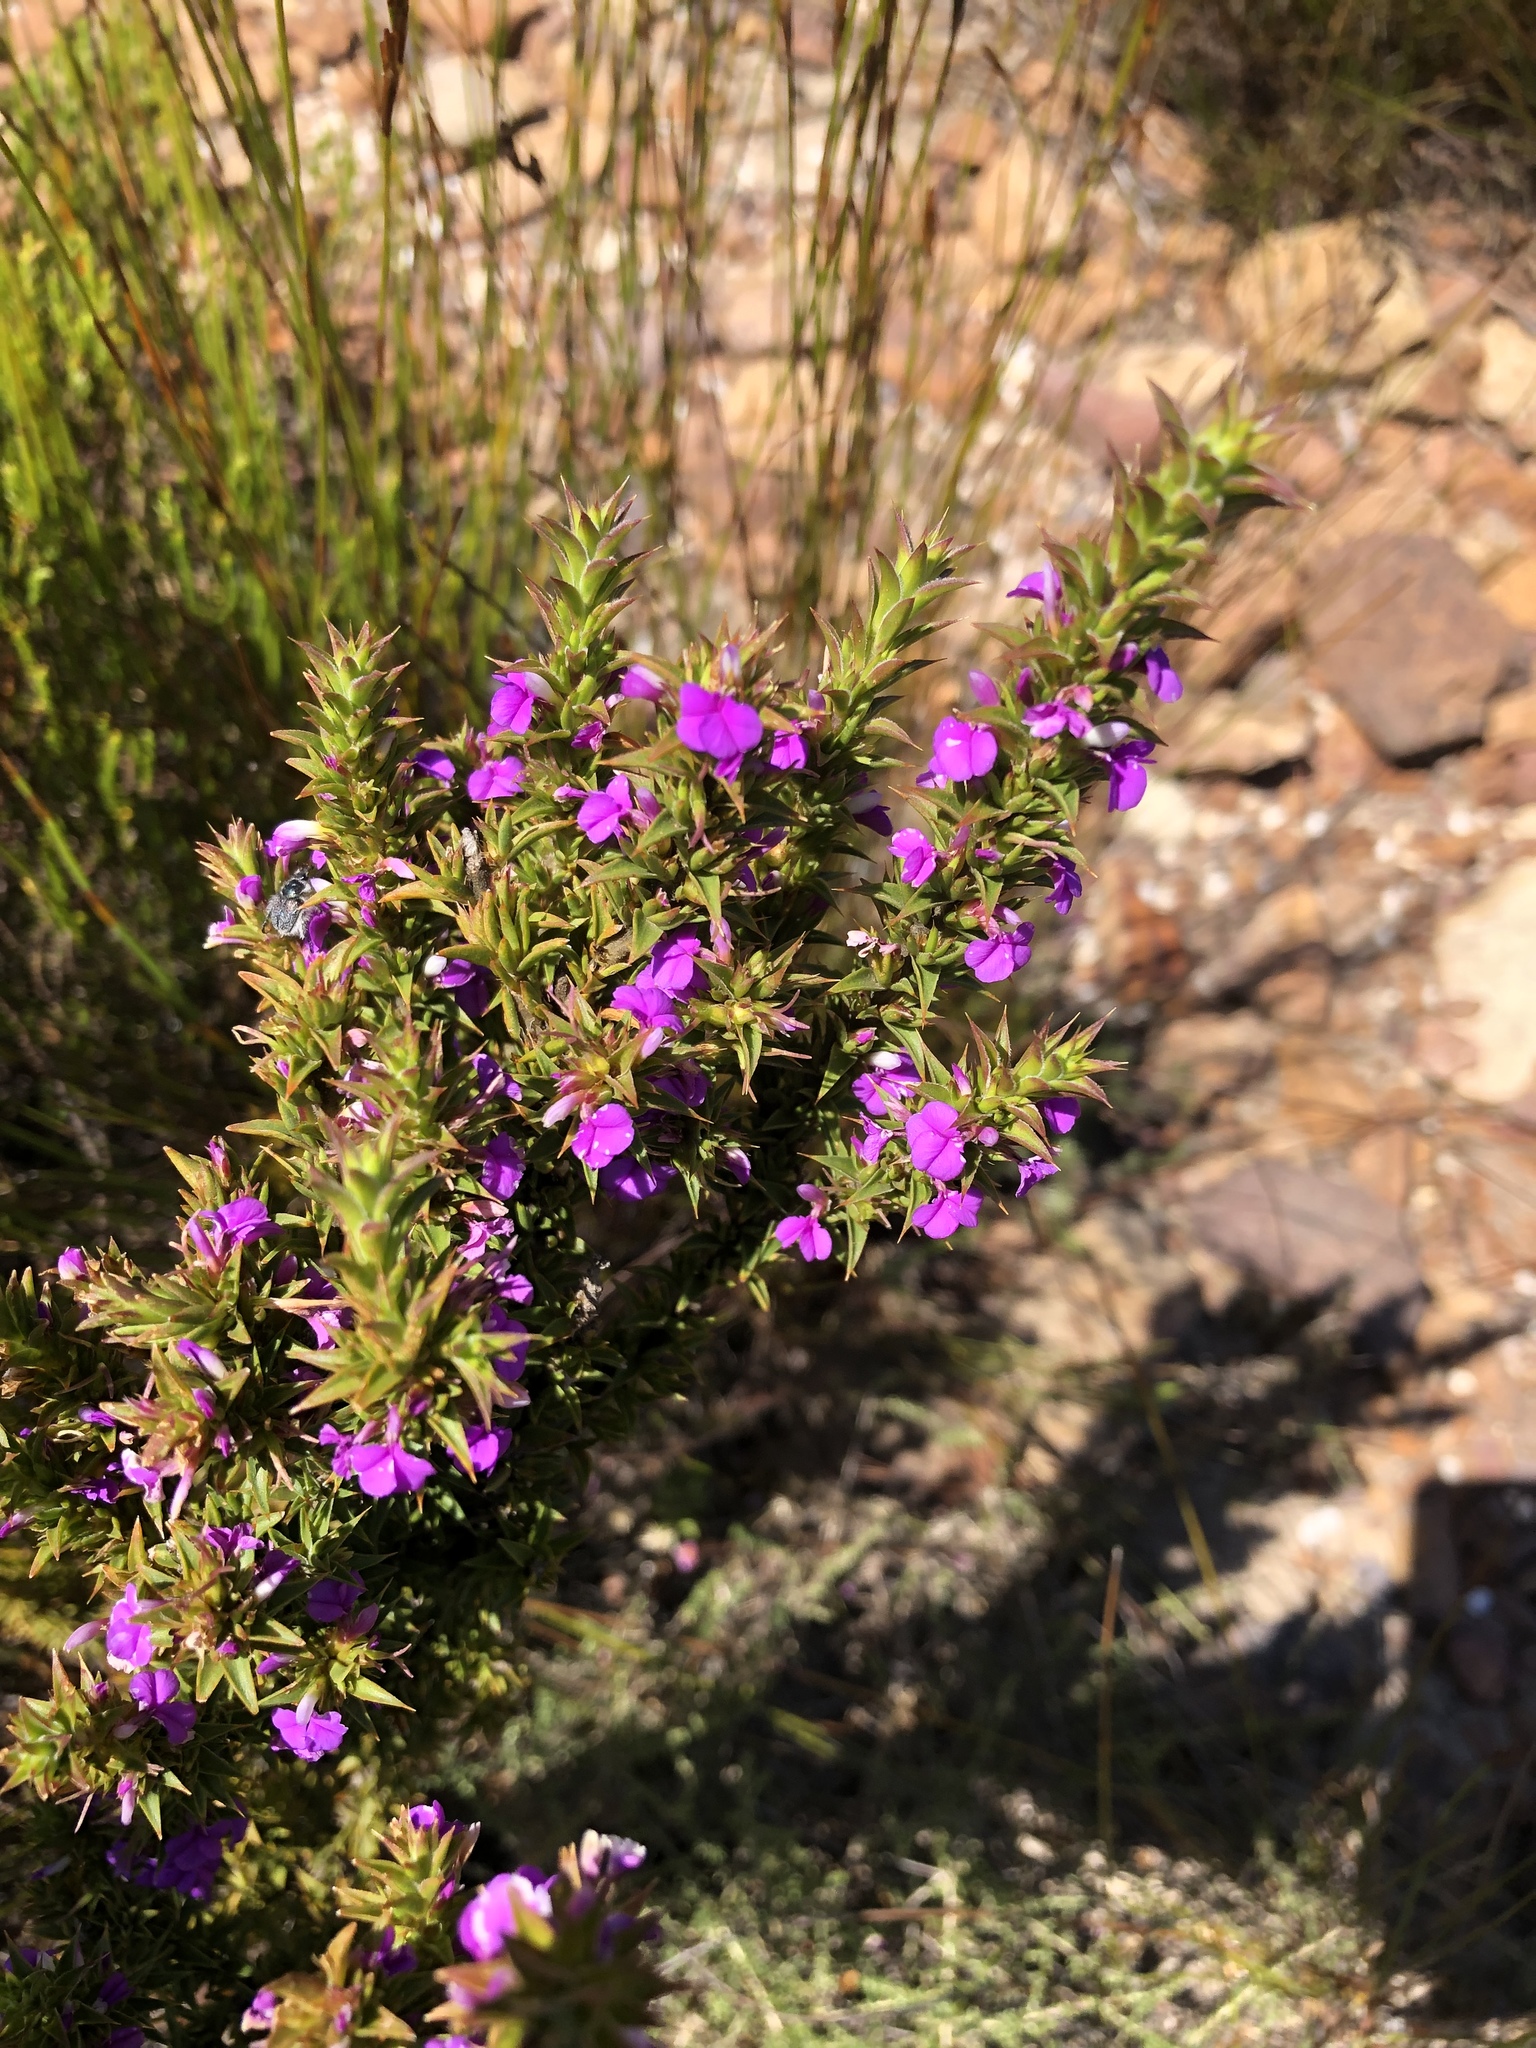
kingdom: Plantae
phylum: Tracheophyta
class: Magnoliopsida
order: Fabales
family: Polygalaceae
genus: Muraltia
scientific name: Muraltia heisteria
